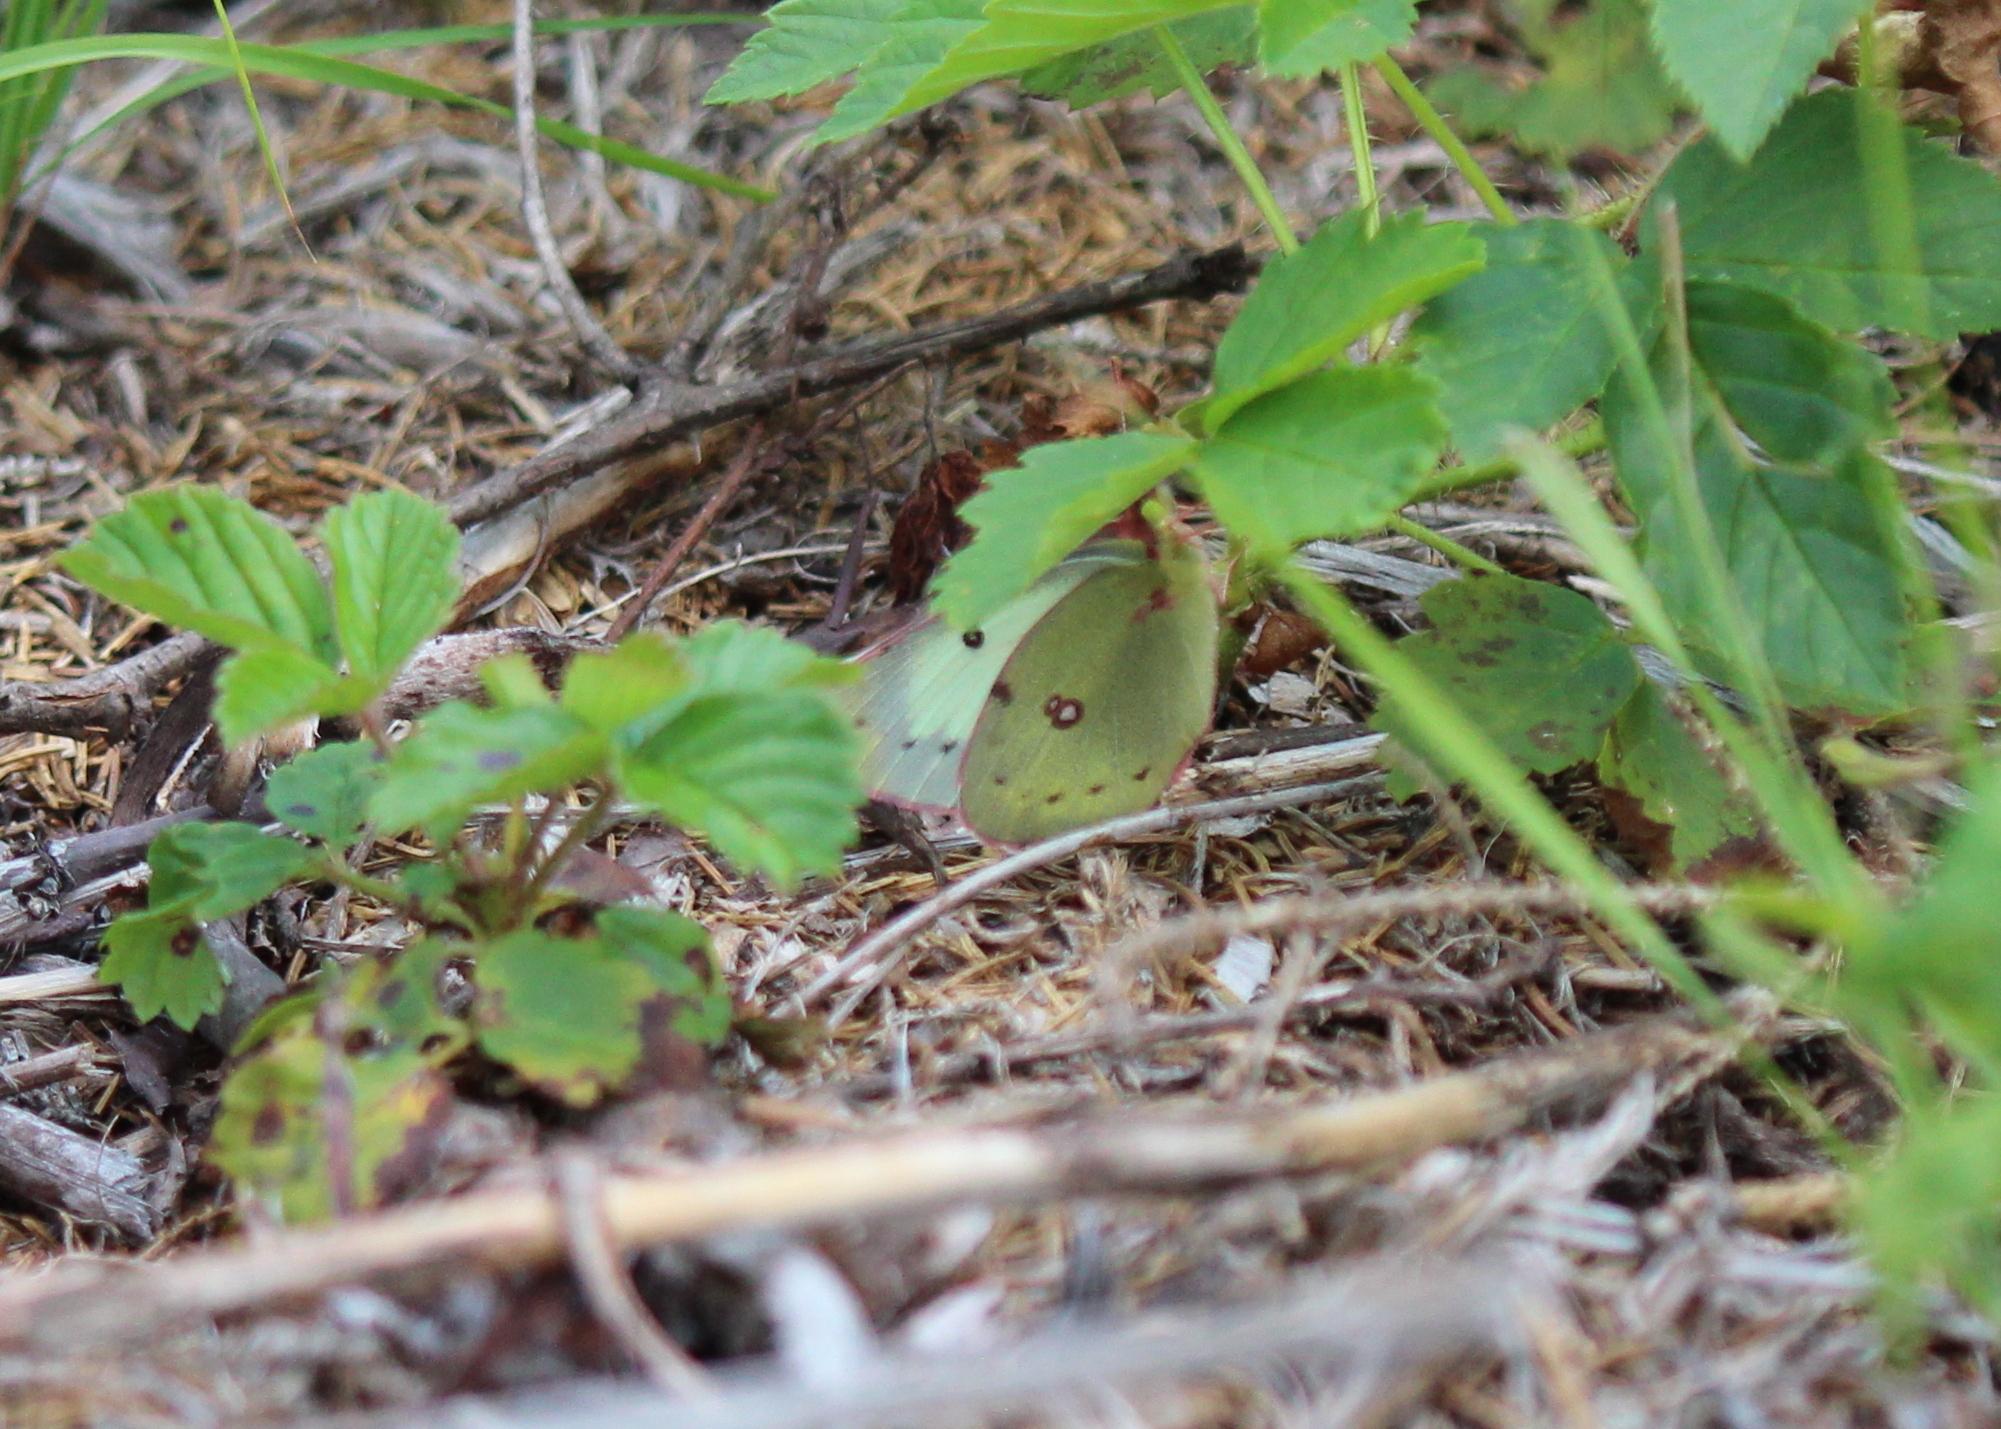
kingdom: Animalia
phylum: Arthropoda
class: Insecta
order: Lepidoptera
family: Pieridae
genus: Colias
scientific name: Colias philodice
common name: Clouded sulphur
